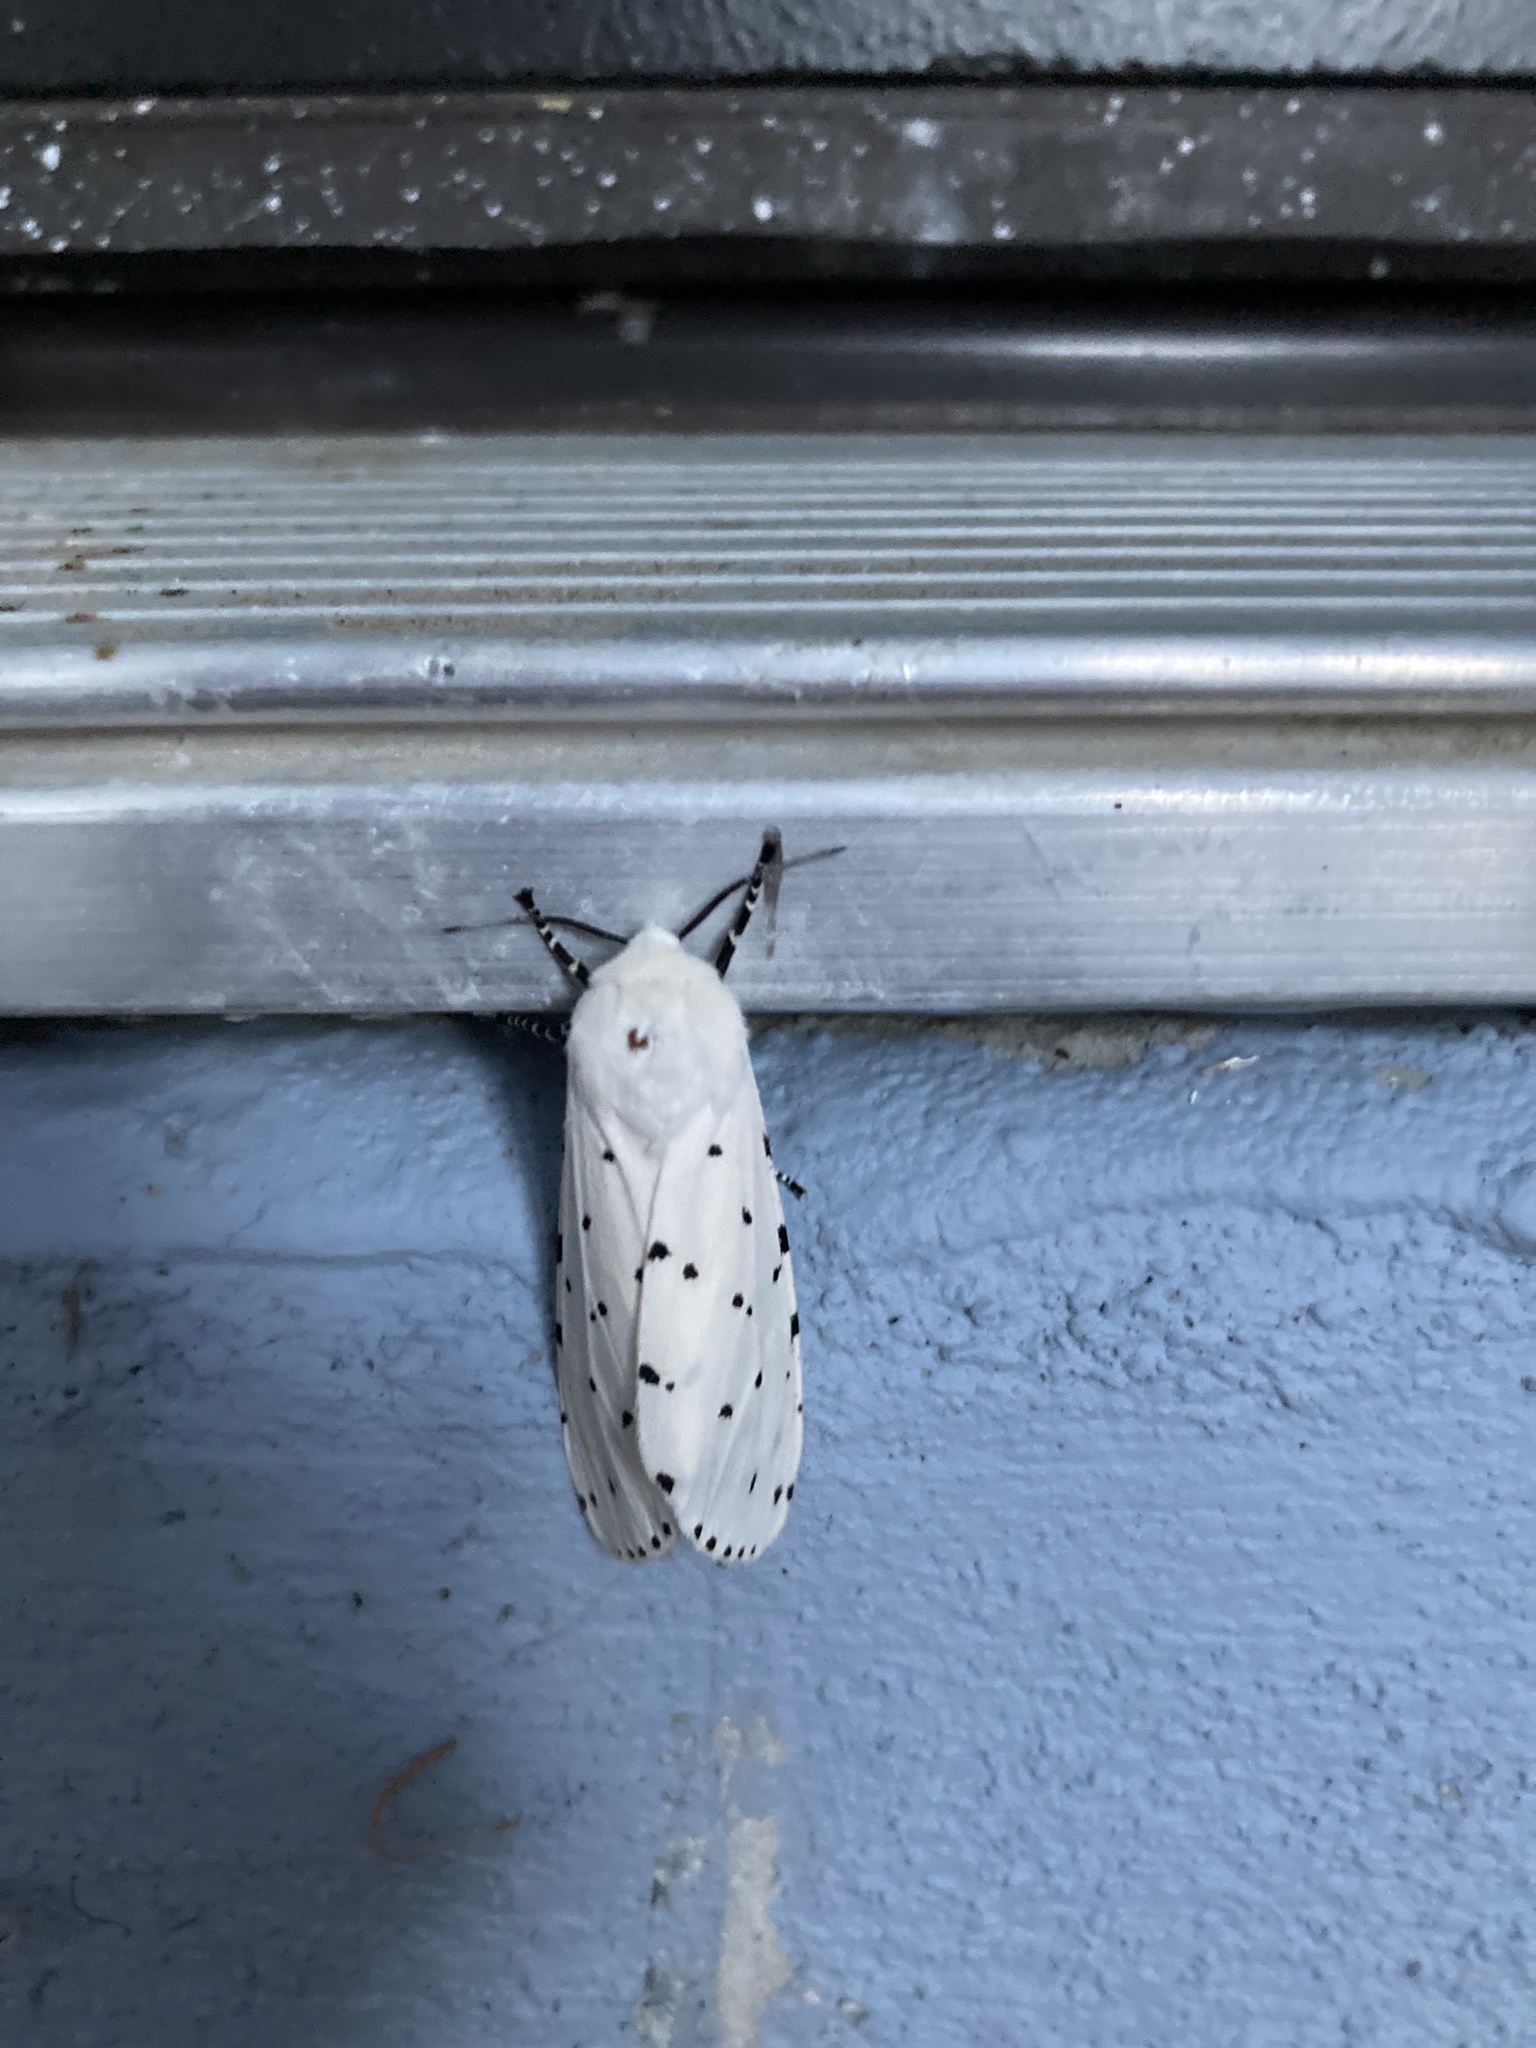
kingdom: Animalia
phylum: Arthropoda
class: Insecta
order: Lepidoptera
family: Erebidae
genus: Estigmene
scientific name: Estigmene acrea
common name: Salt marsh moth
